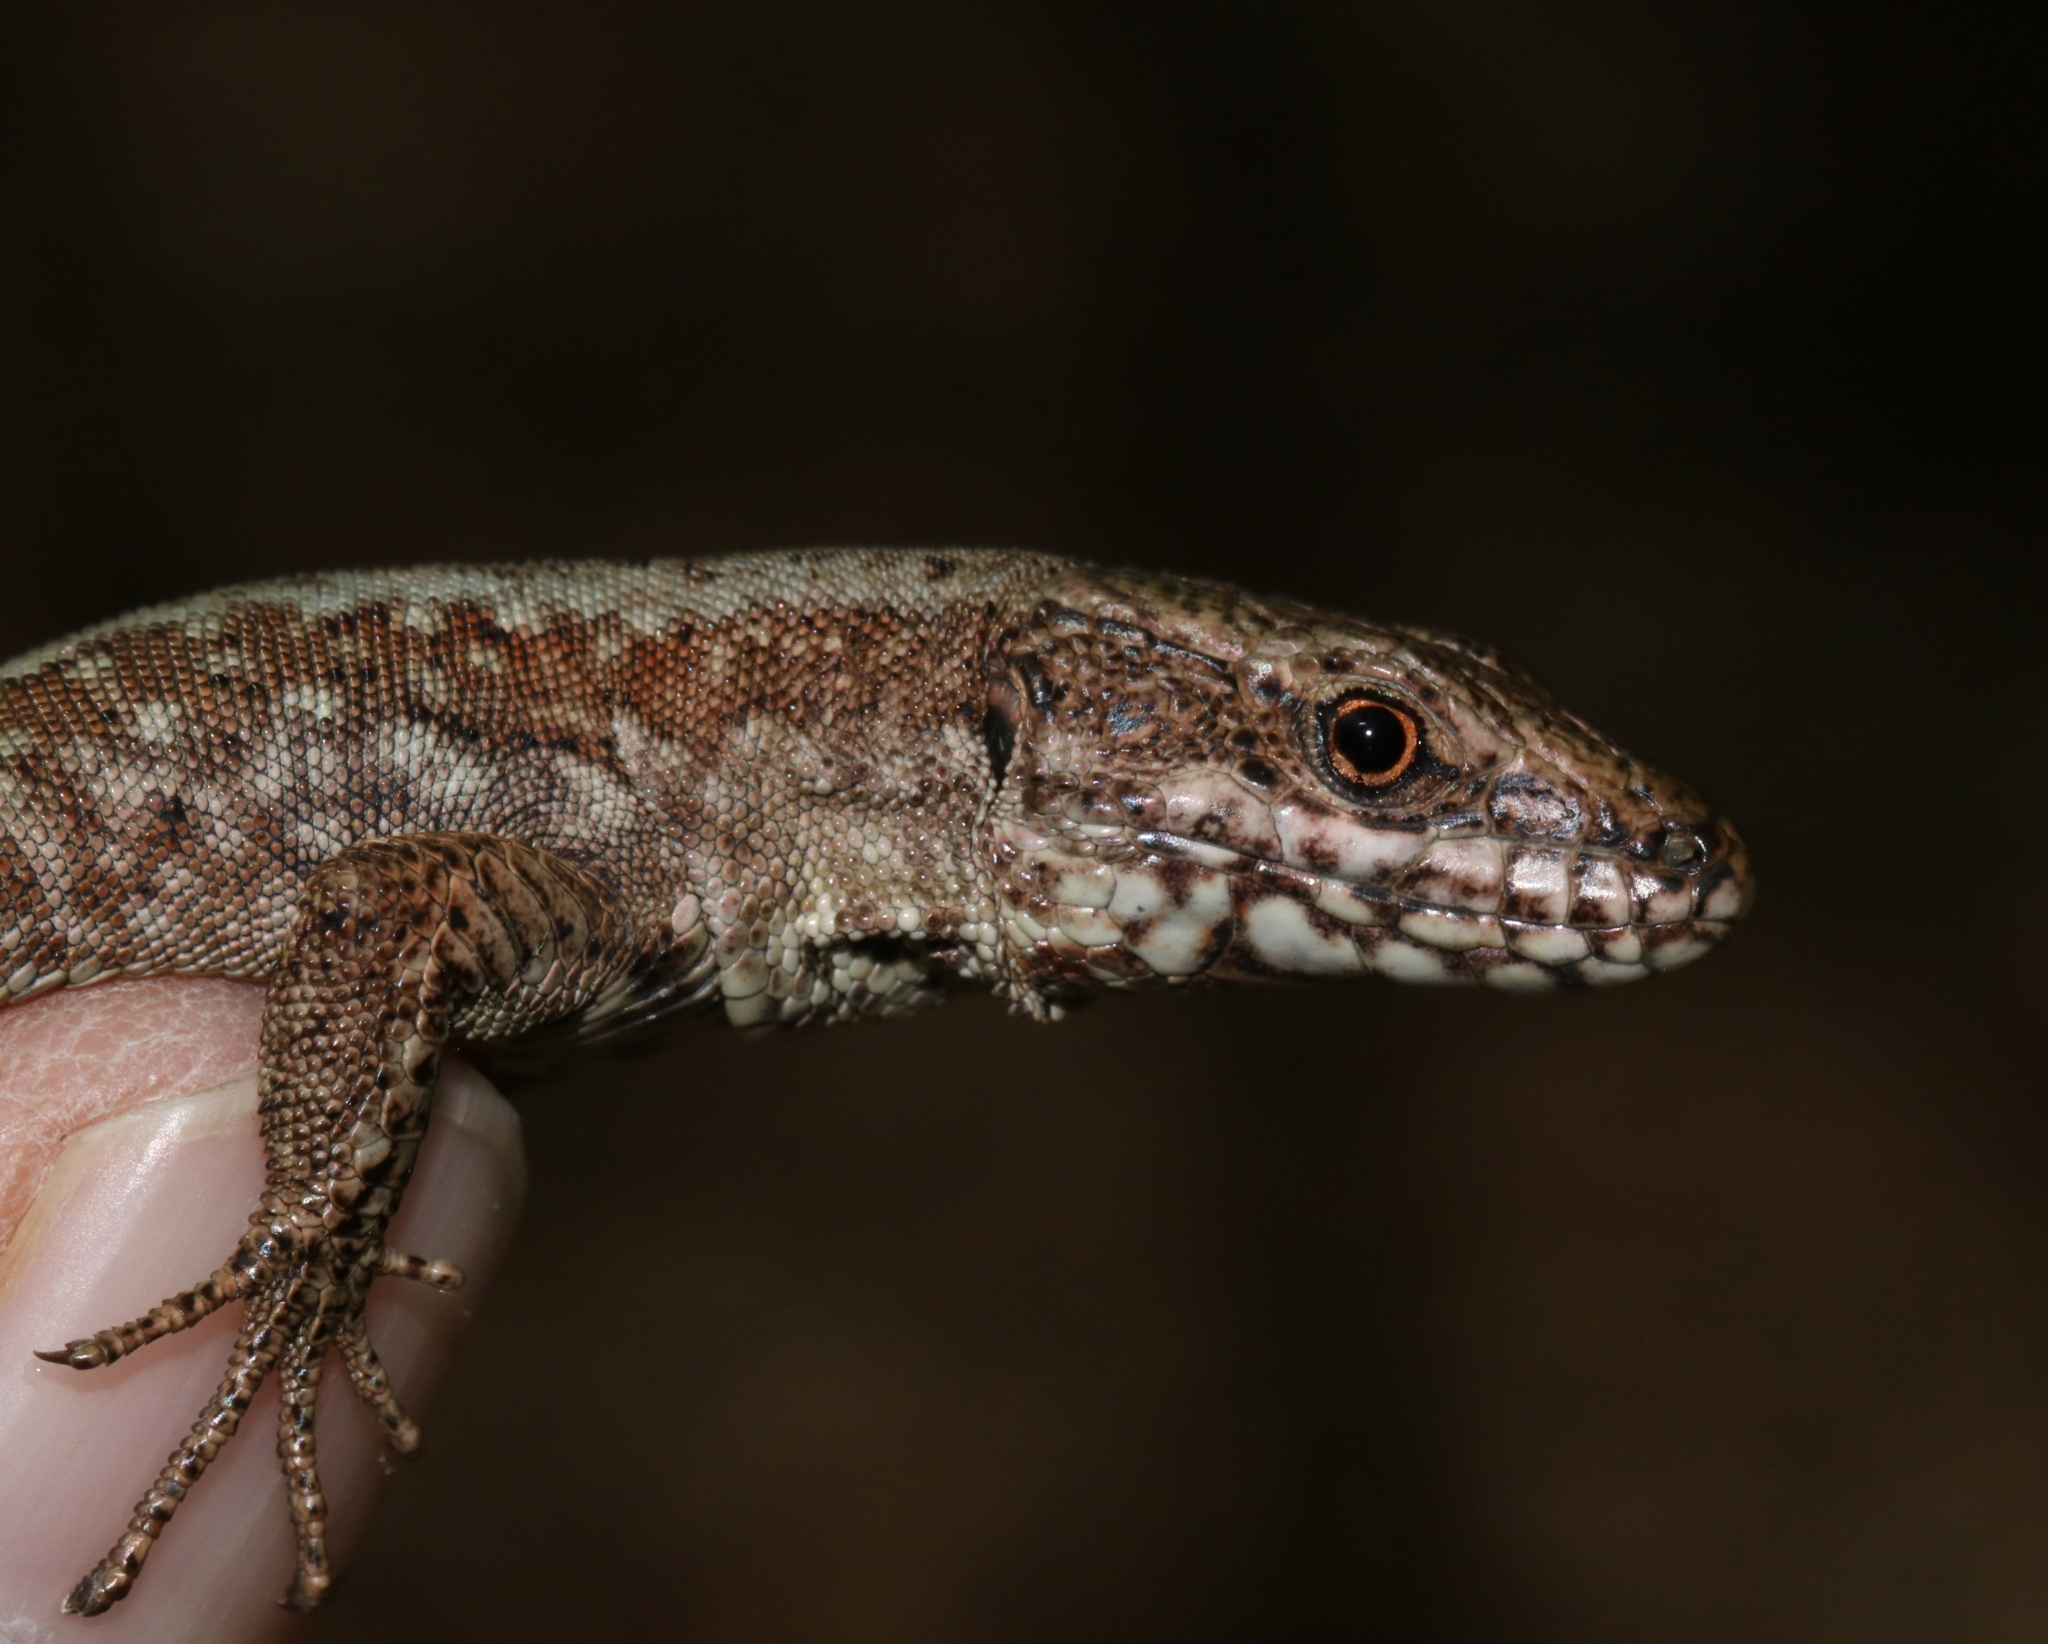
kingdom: Animalia
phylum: Chordata
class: Squamata
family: Lacertidae
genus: Podarcis
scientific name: Podarcis muralis
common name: Common wall lizard
